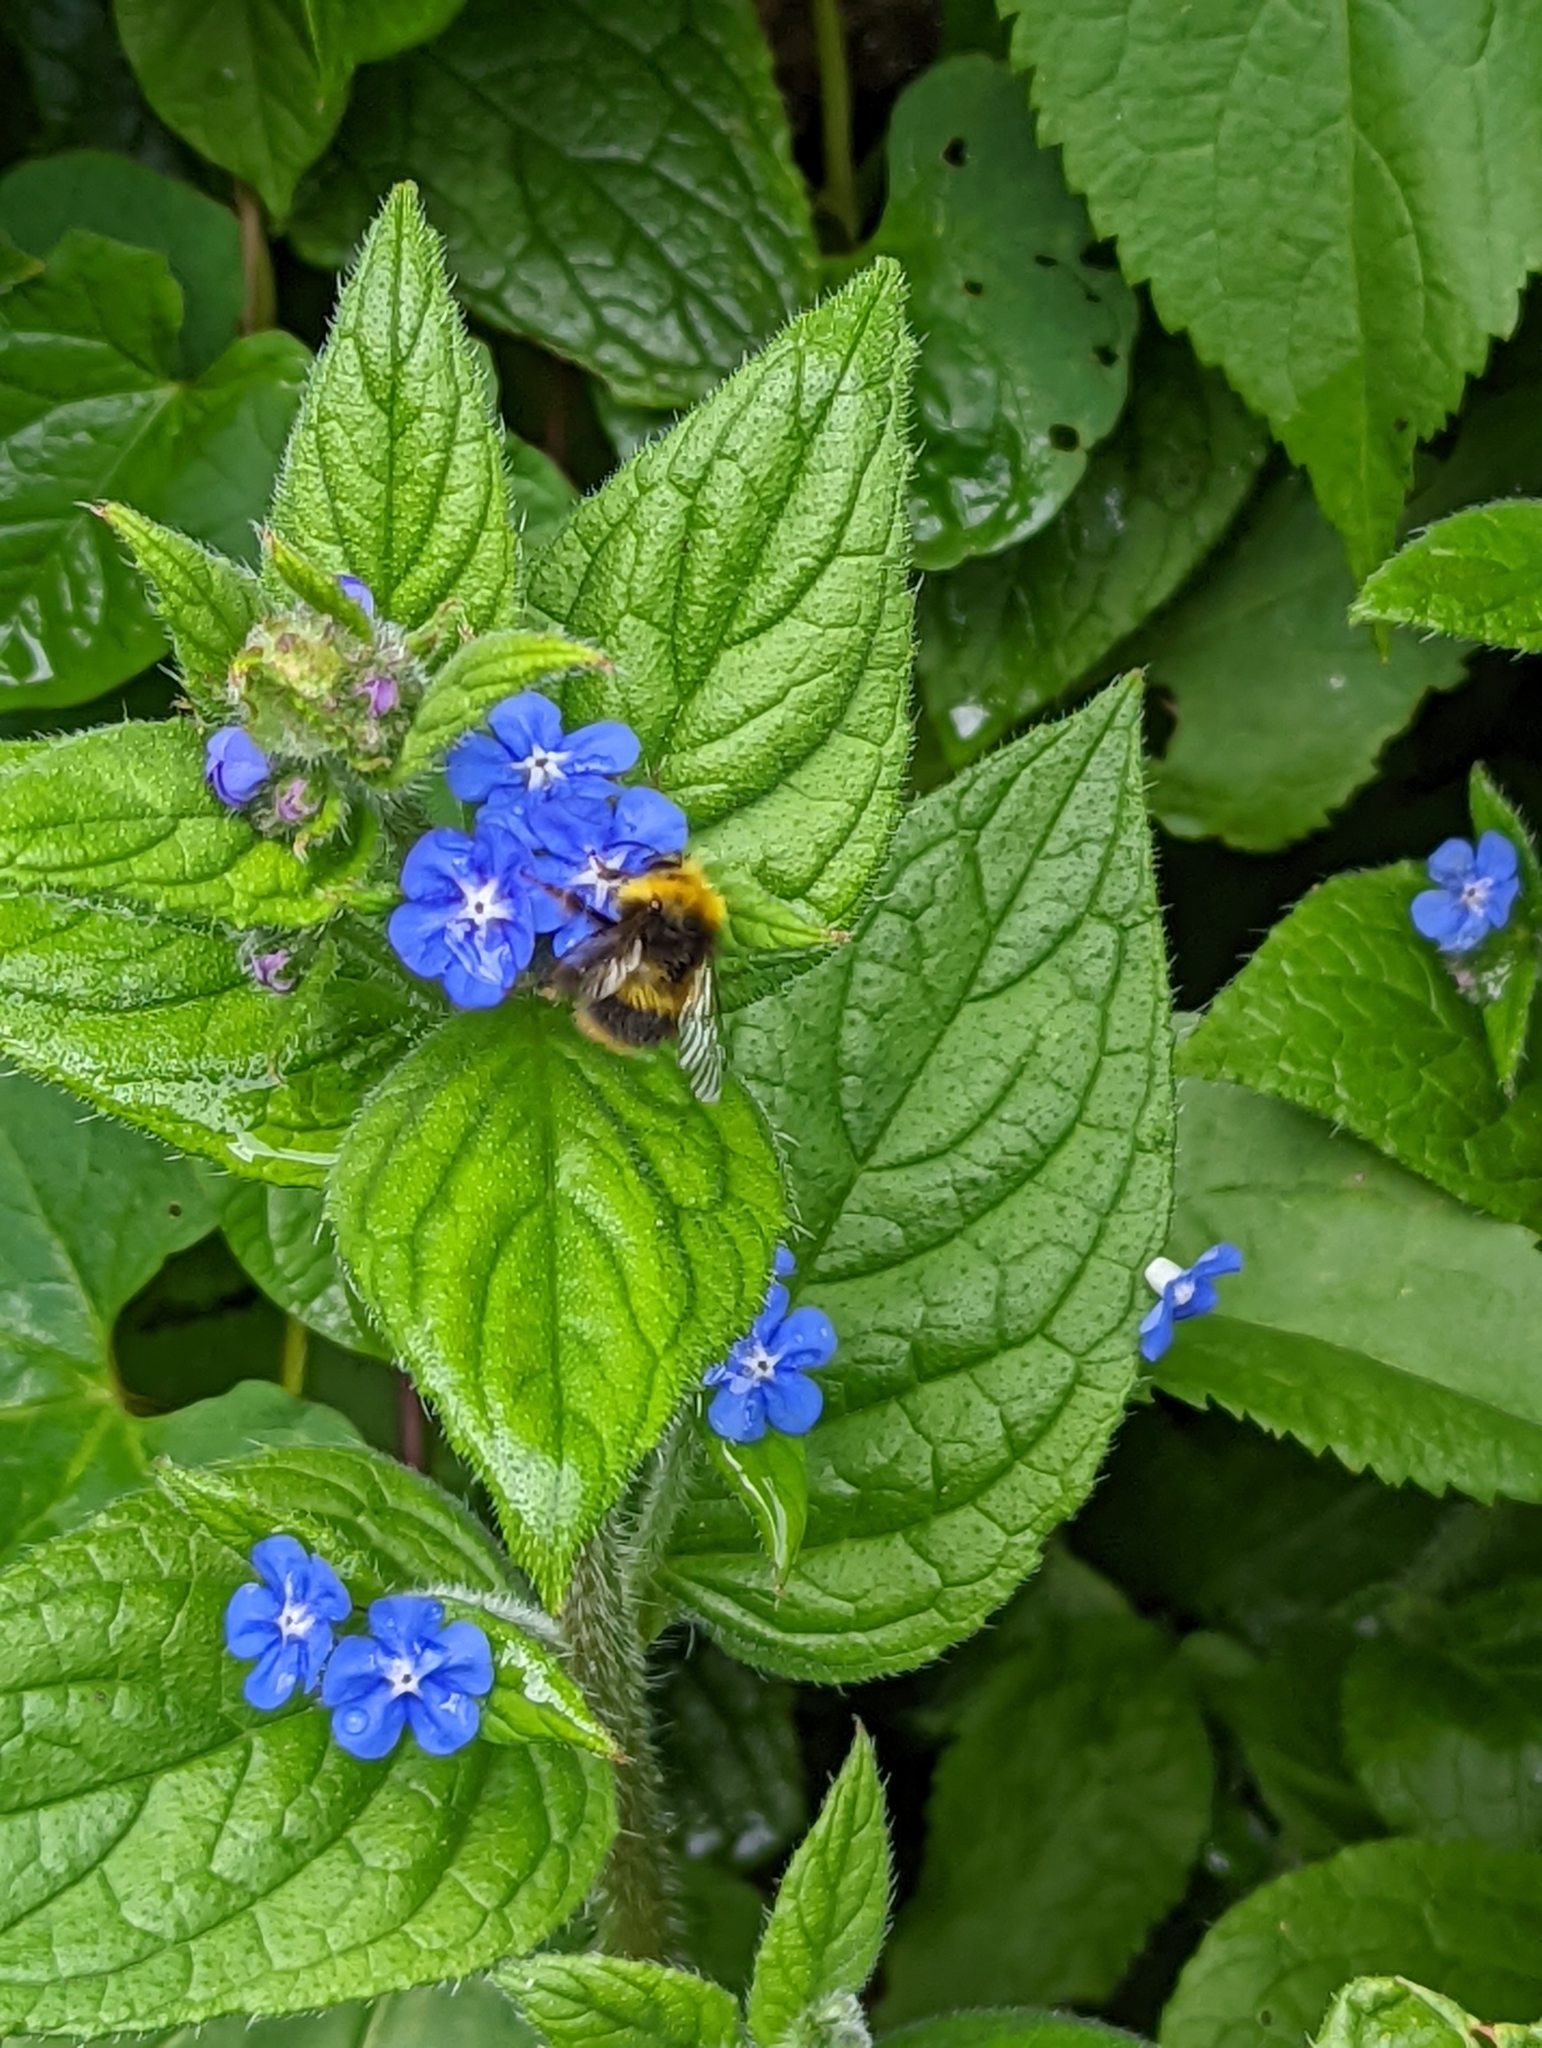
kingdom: Animalia
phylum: Arthropoda
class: Insecta
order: Hymenoptera
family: Apidae
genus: Bombus
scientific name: Bombus pratorum
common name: Early humble-bee
